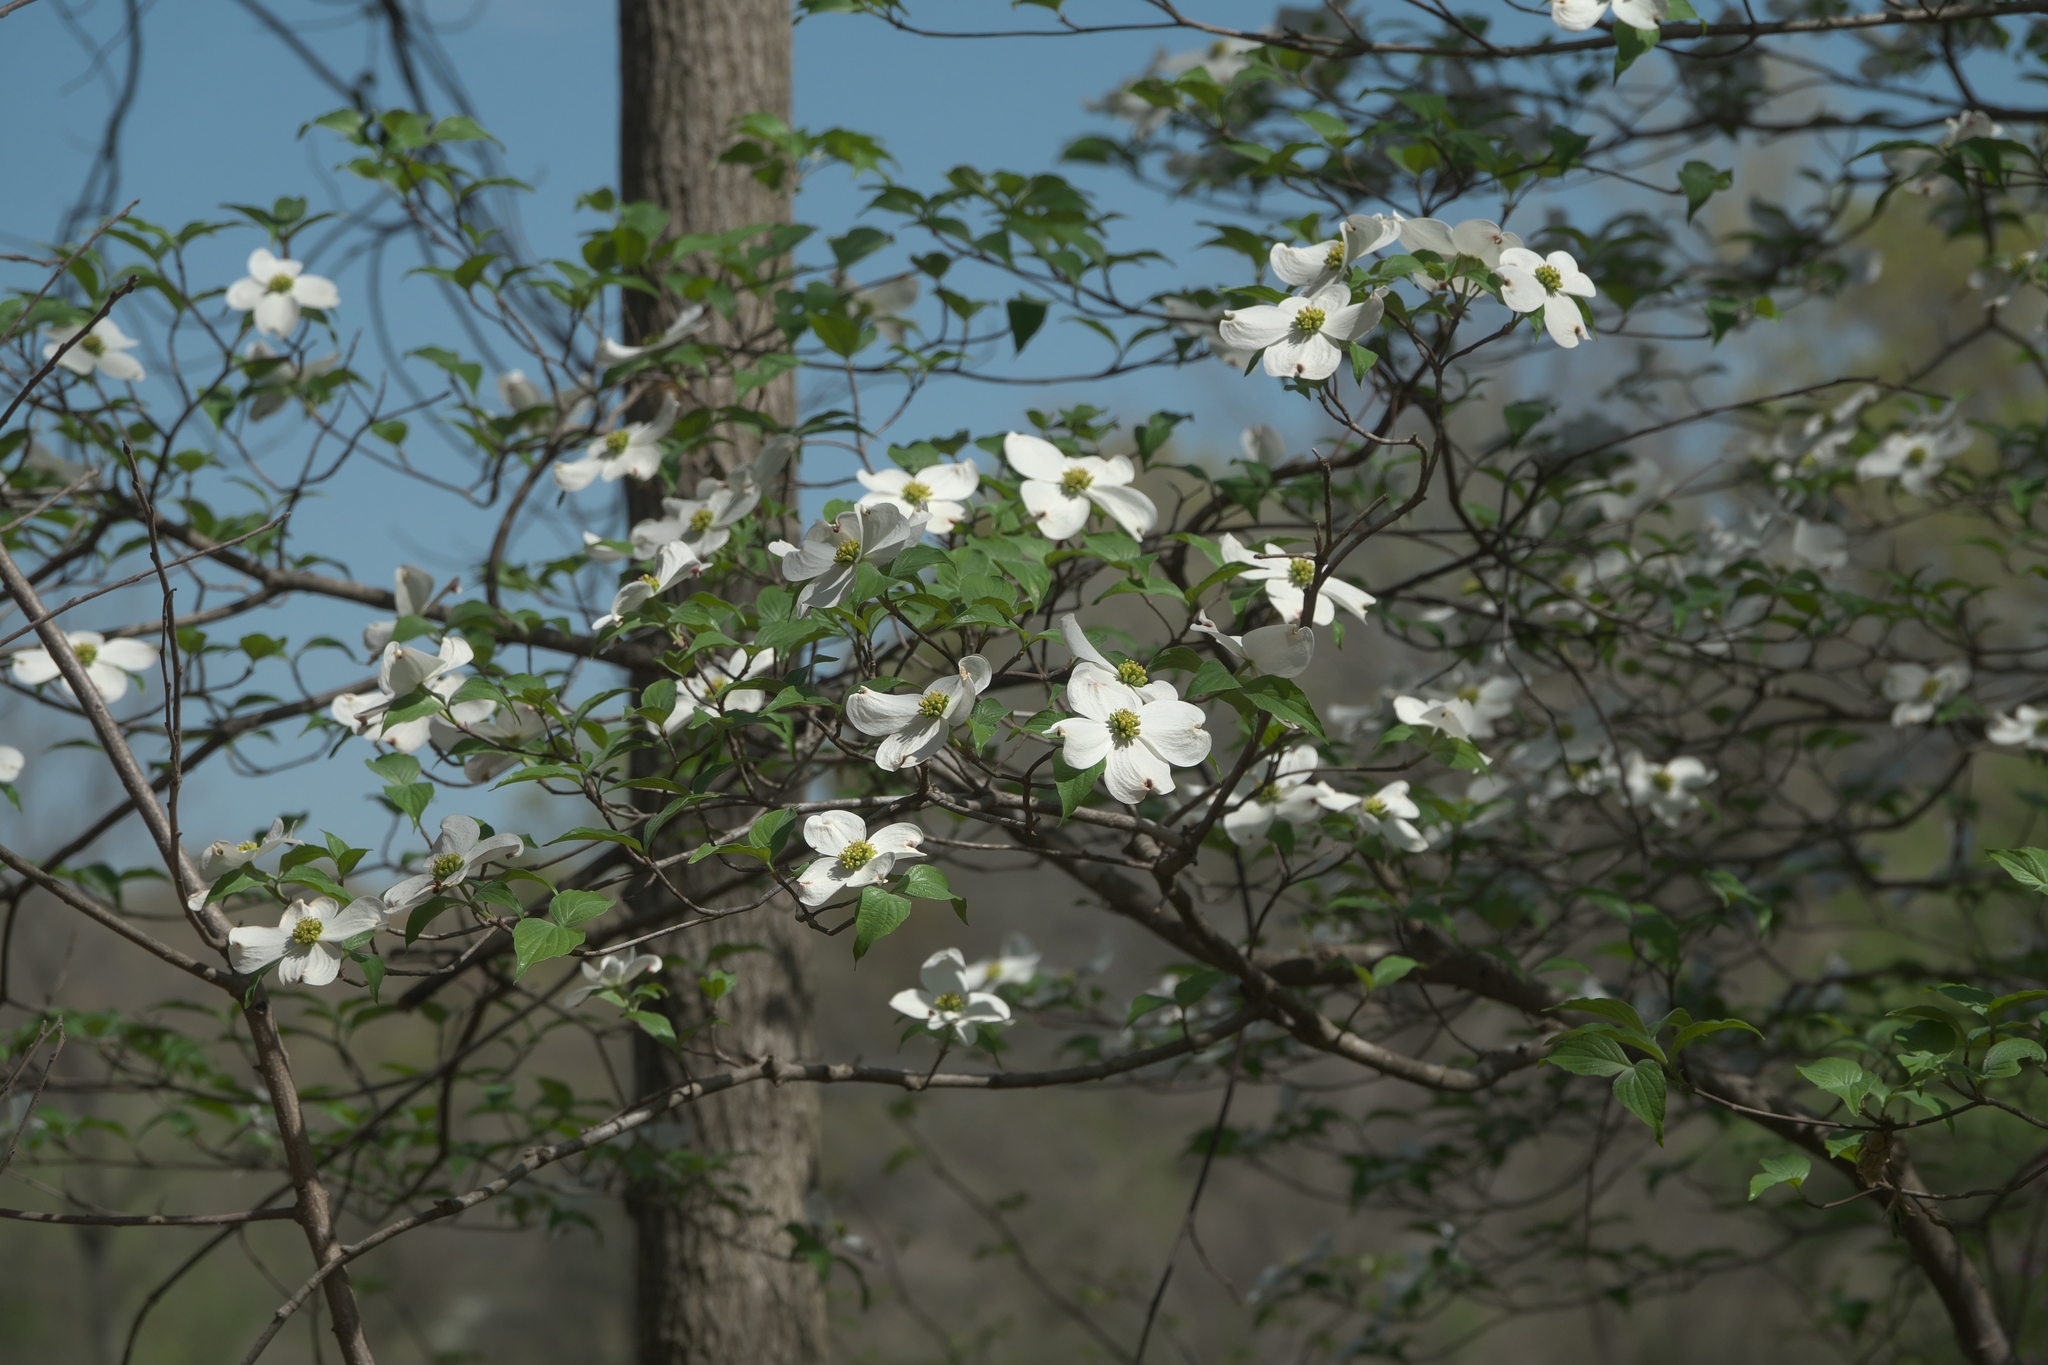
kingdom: Plantae
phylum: Tracheophyta
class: Magnoliopsida
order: Cornales
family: Cornaceae
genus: Cornus
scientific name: Cornus florida
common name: Flowering dogwood
